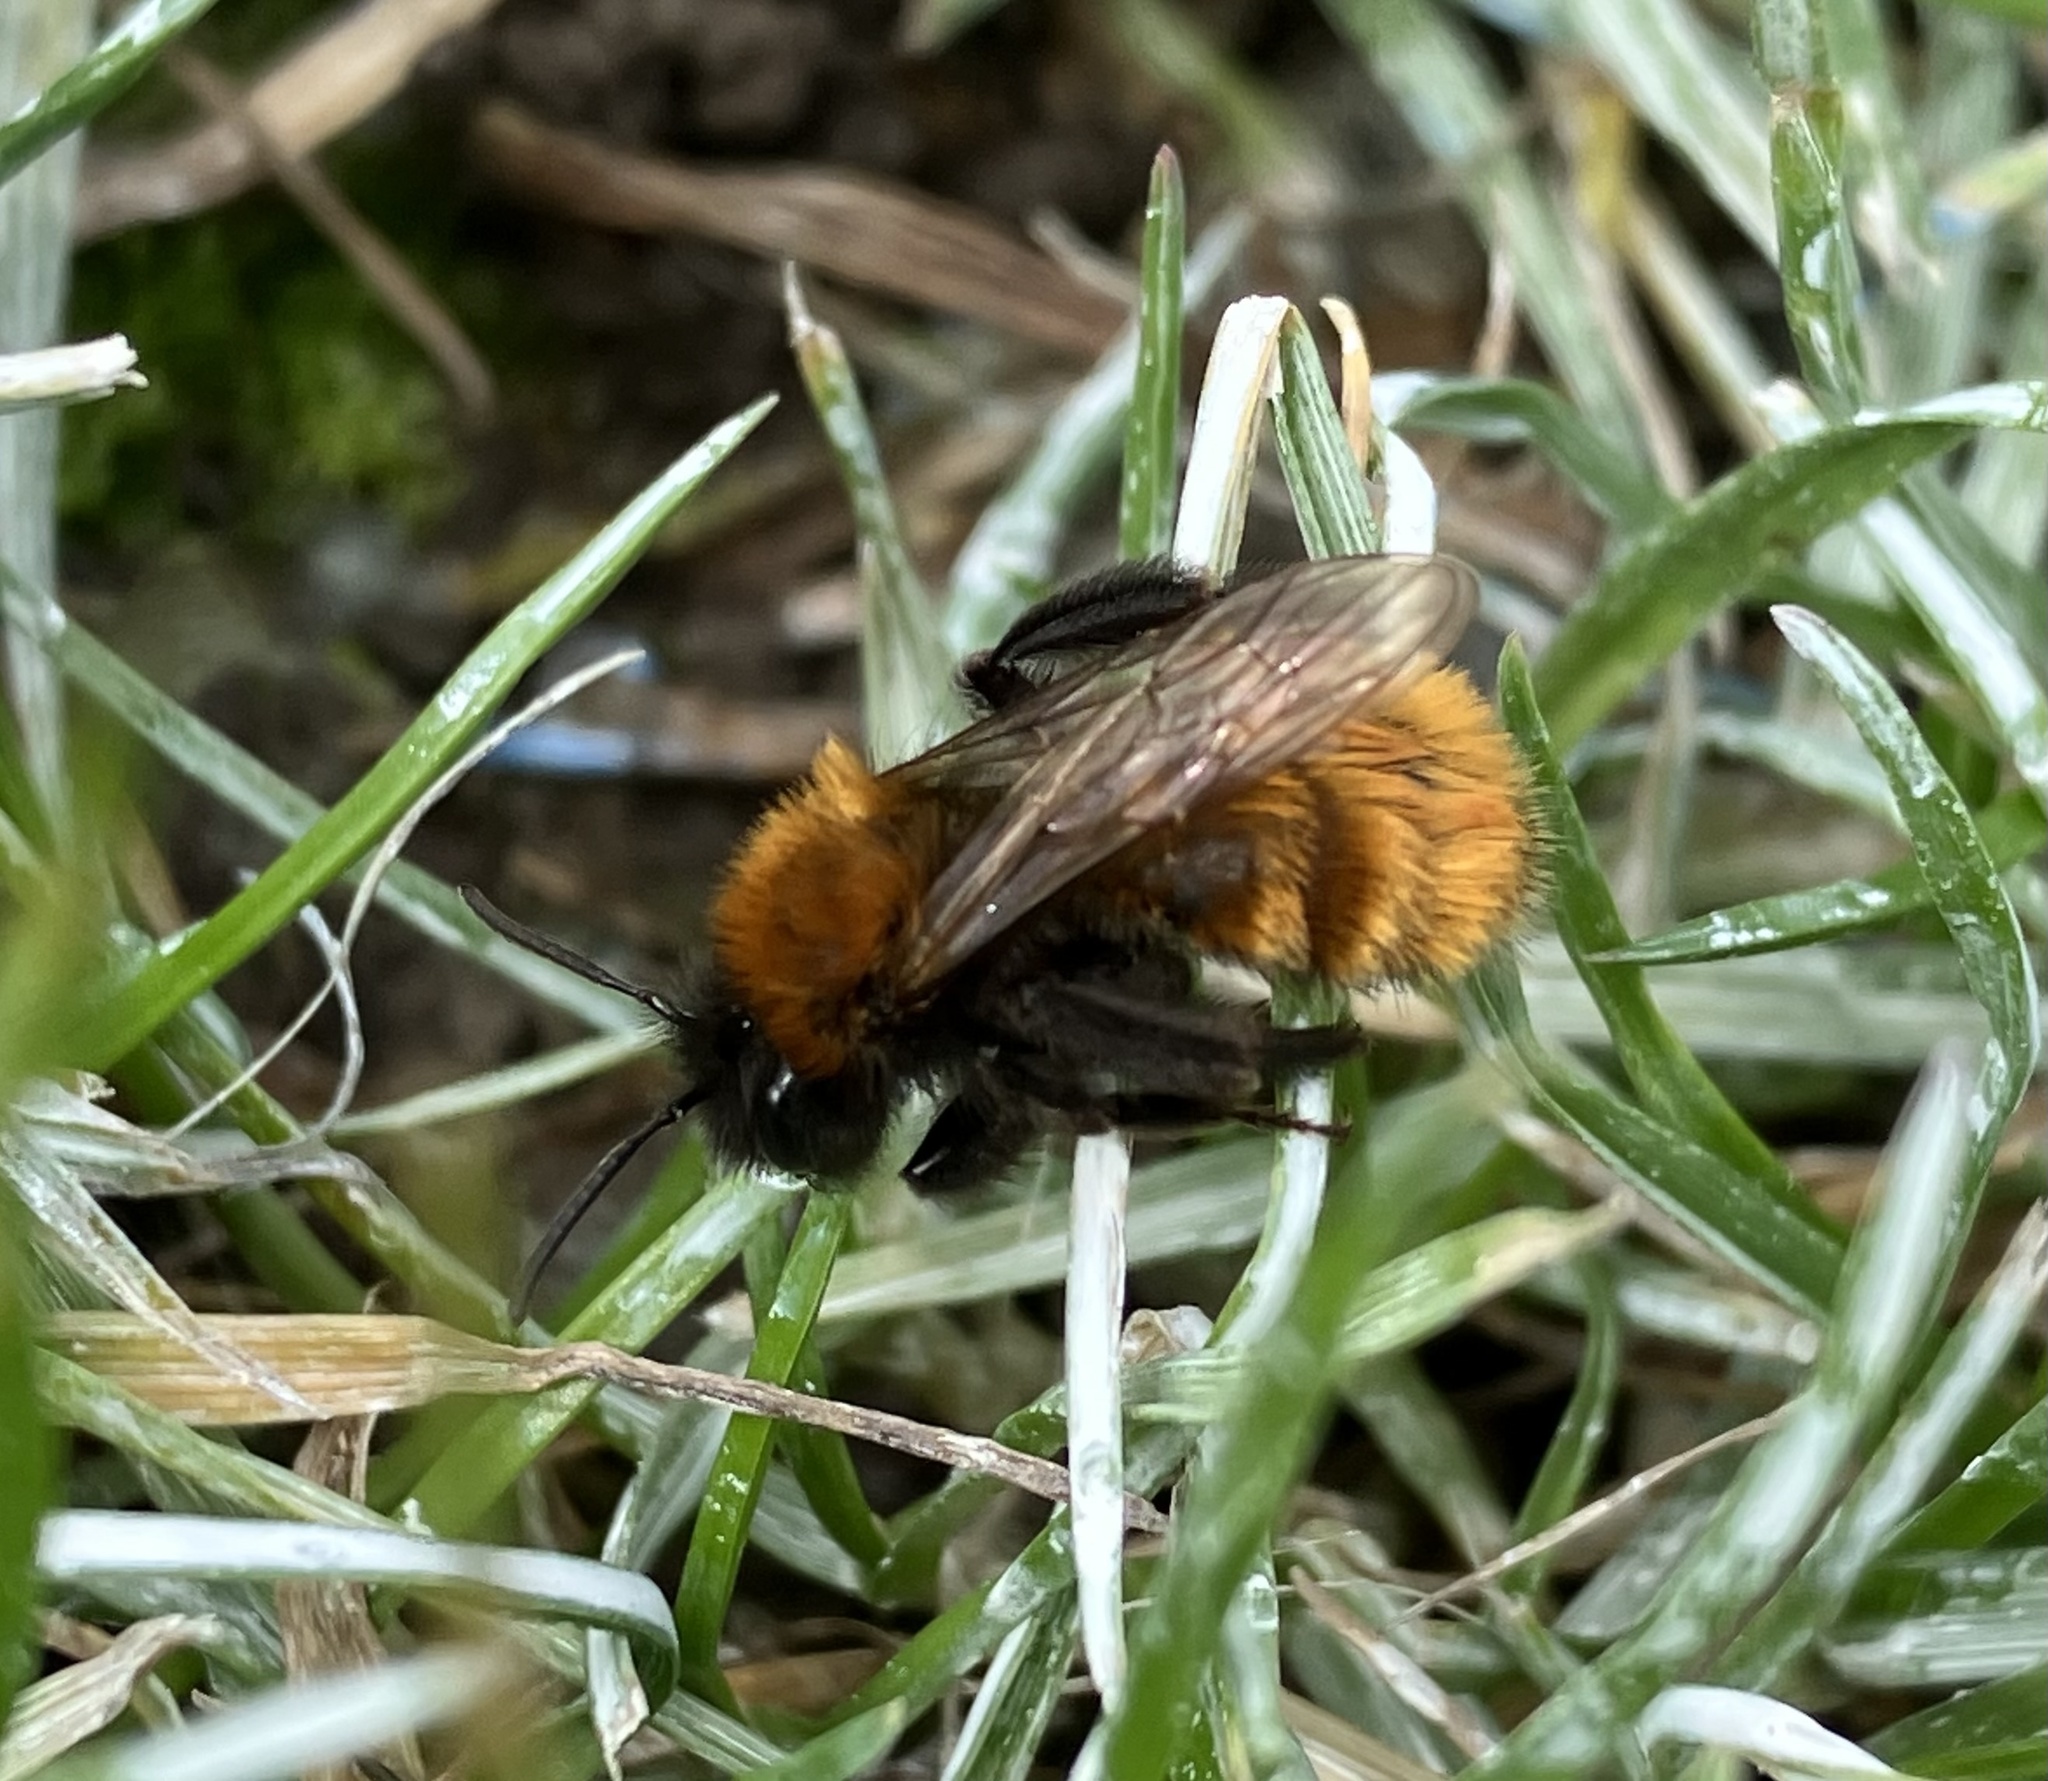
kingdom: Animalia
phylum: Arthropoda
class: Insecta
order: Hymenoptera
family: Andrenidae
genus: Andrena
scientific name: Andrena fulva
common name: Tawny mining bee
